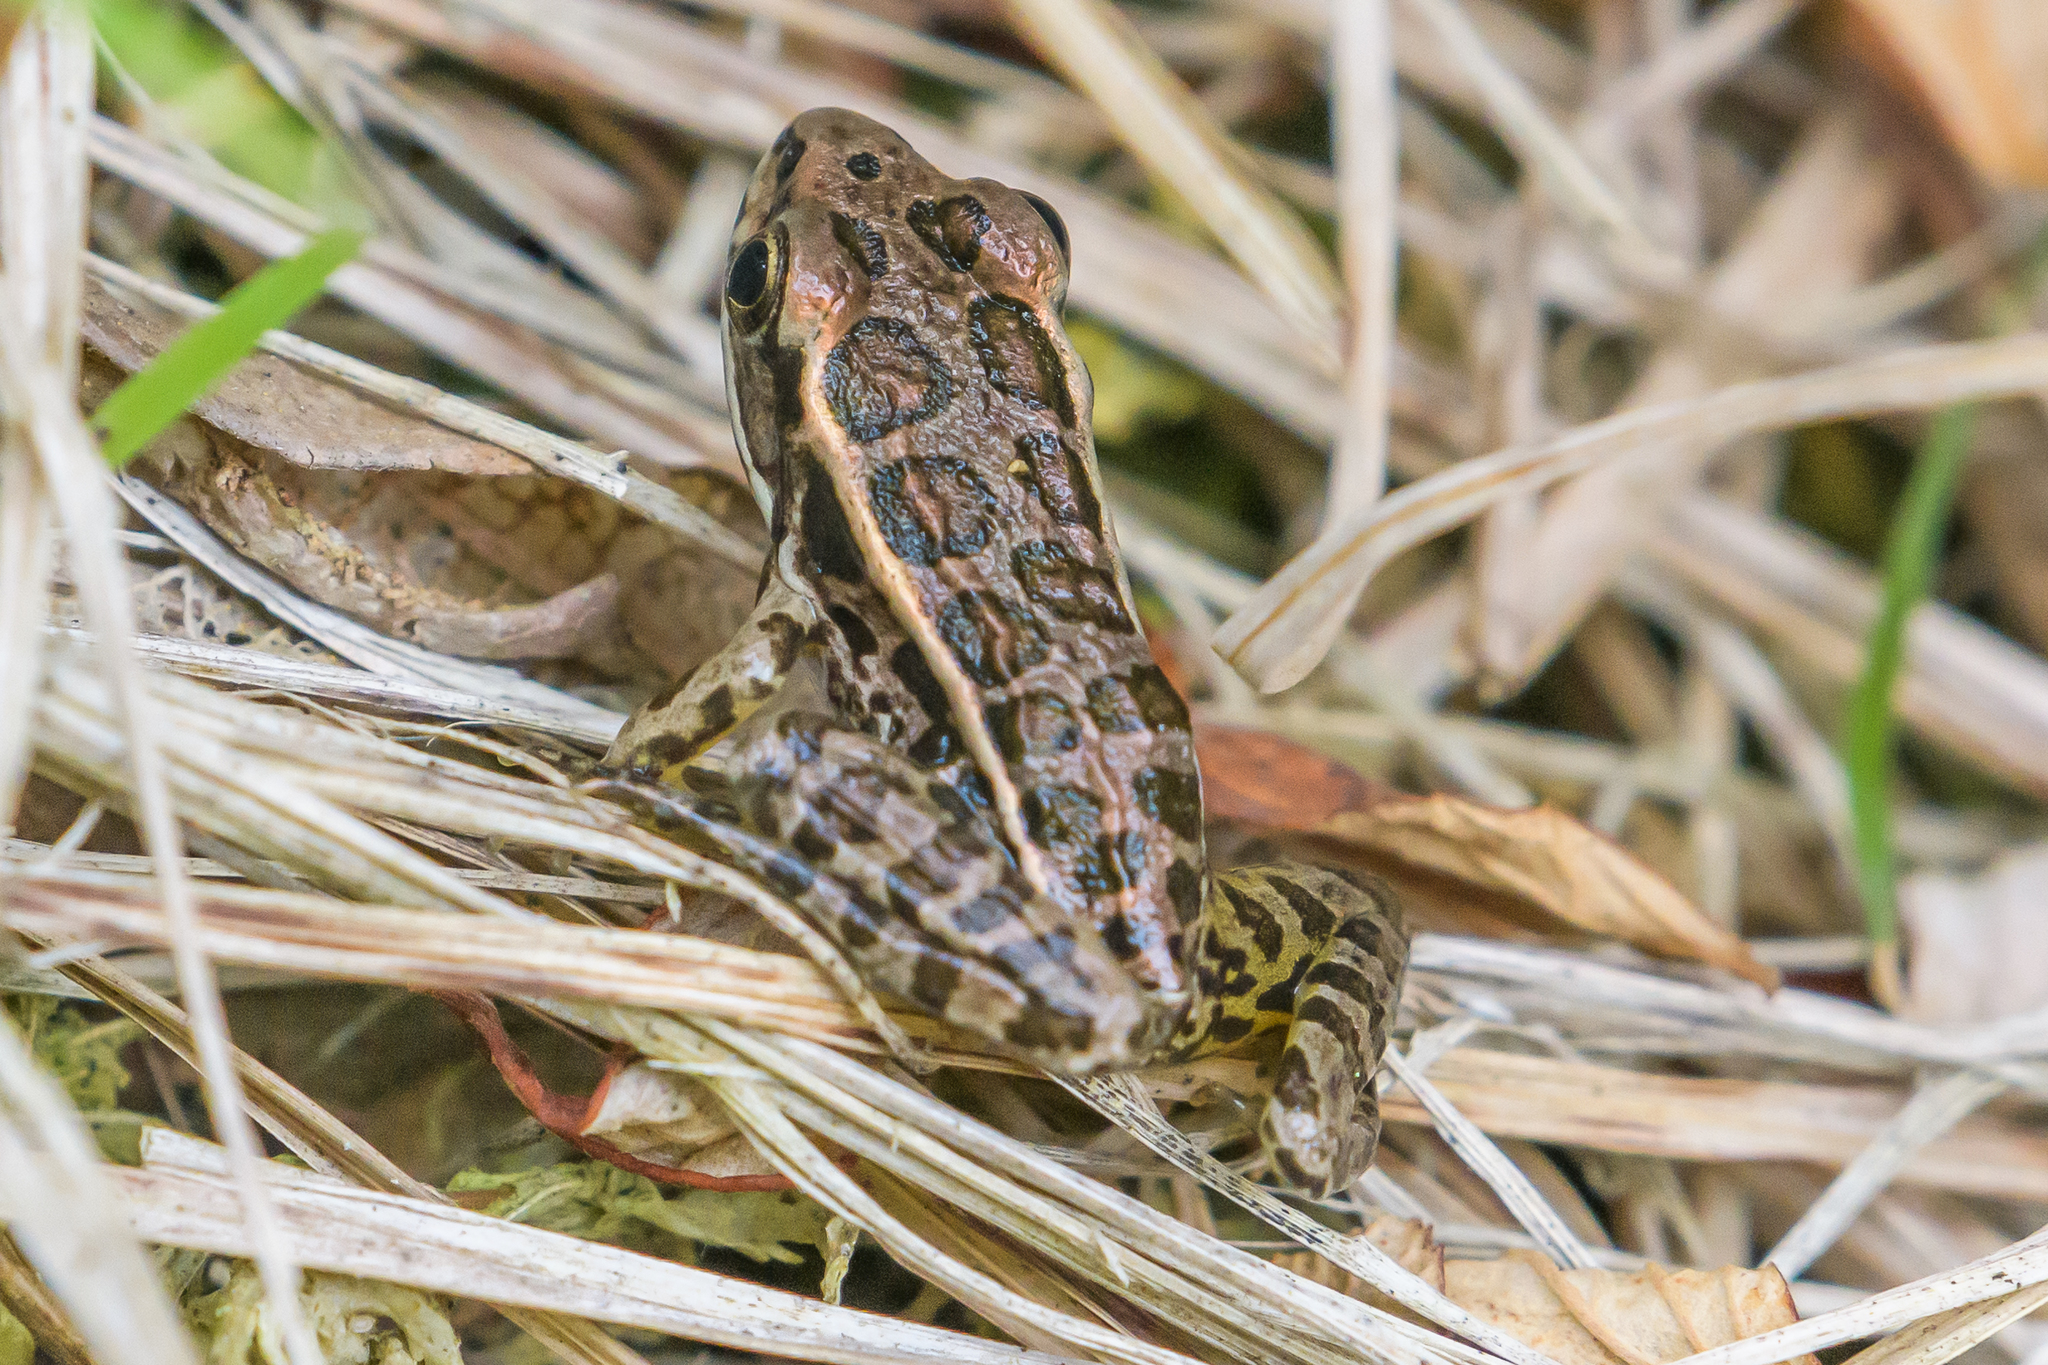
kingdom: Animalia
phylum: Chordata
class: Amphibia
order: Anura
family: Ranidae
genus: Lithobates
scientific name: Lithobates palustris
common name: Pickerel frog
